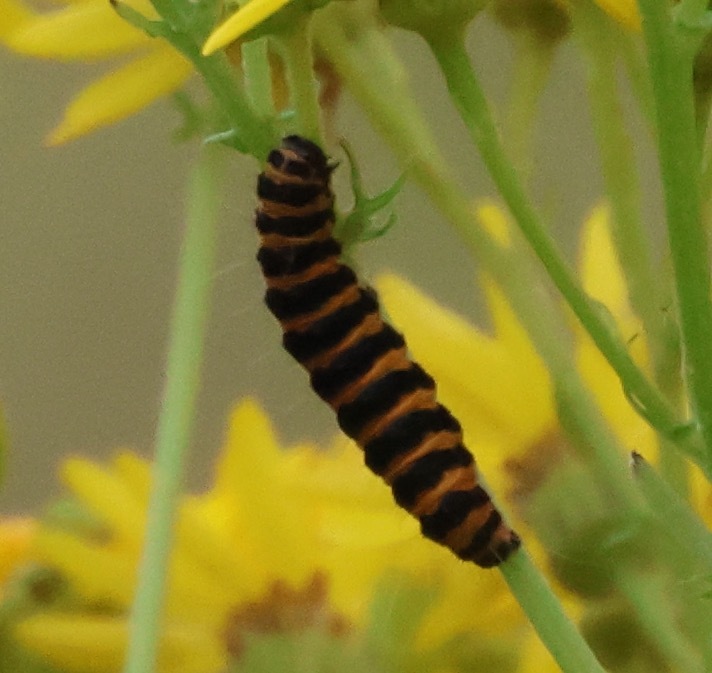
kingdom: Animalia
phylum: Arthropoda
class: Insecta
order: Lepidoptera
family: Erebidae
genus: Tyria
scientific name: Tyria jacobaeae
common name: Cinnabar
